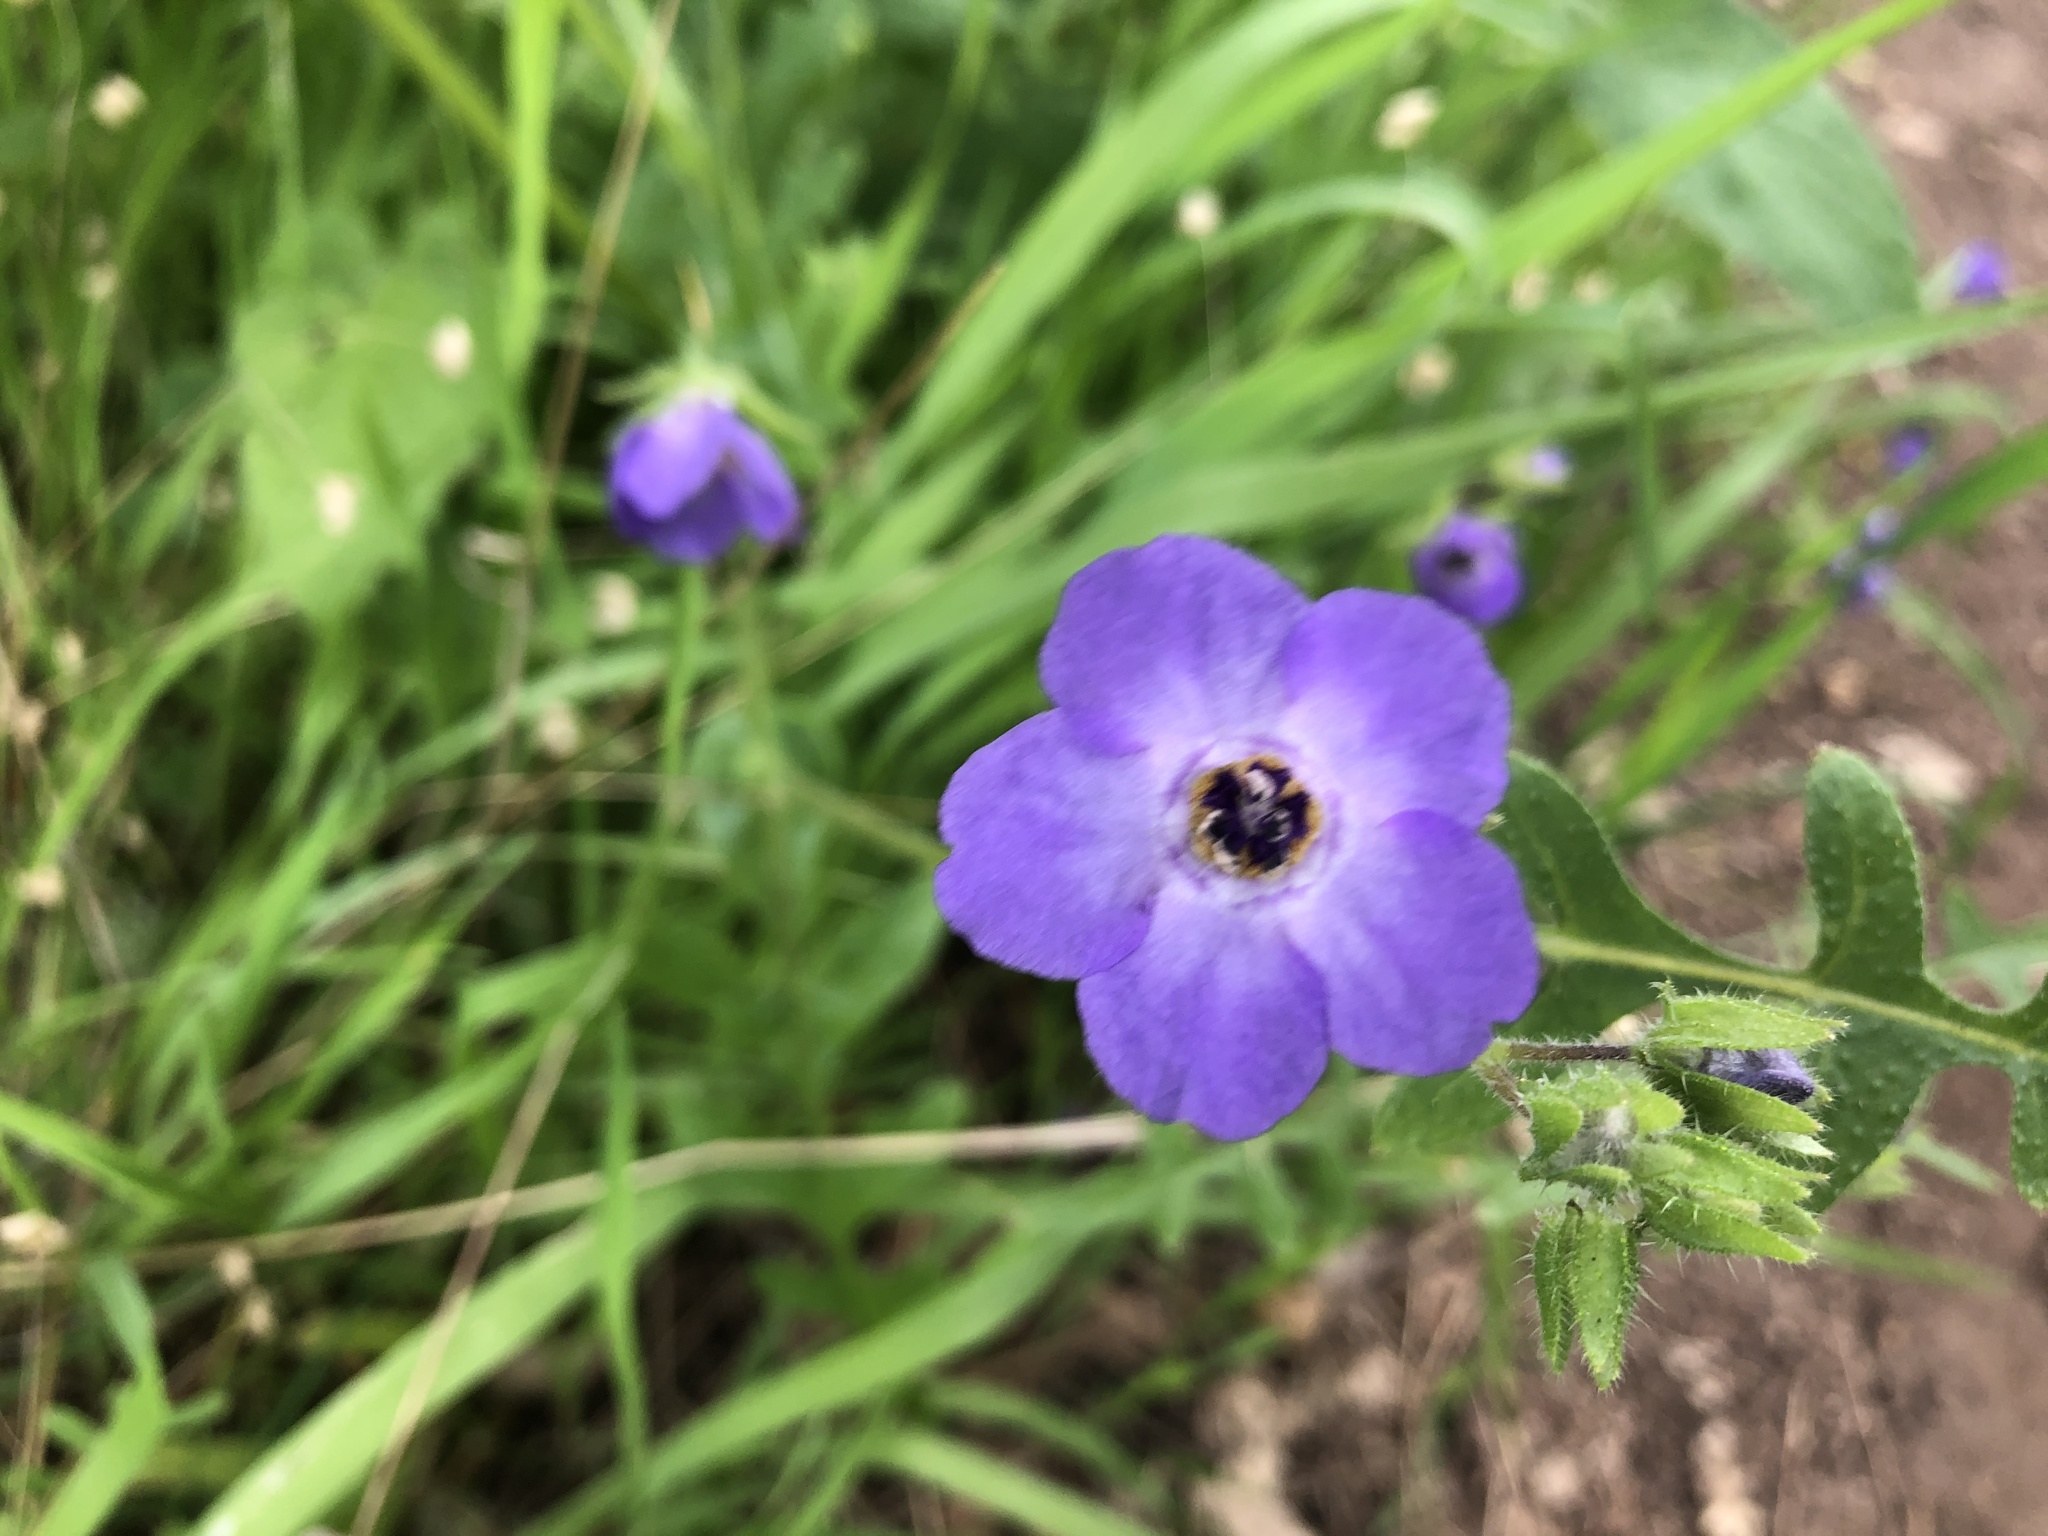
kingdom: Plantae
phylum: Tracheophyta
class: Magnoliopsida
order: Boraginales
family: Hydrophyllaceae
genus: Pholistoma
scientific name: Pholistoma auritum
